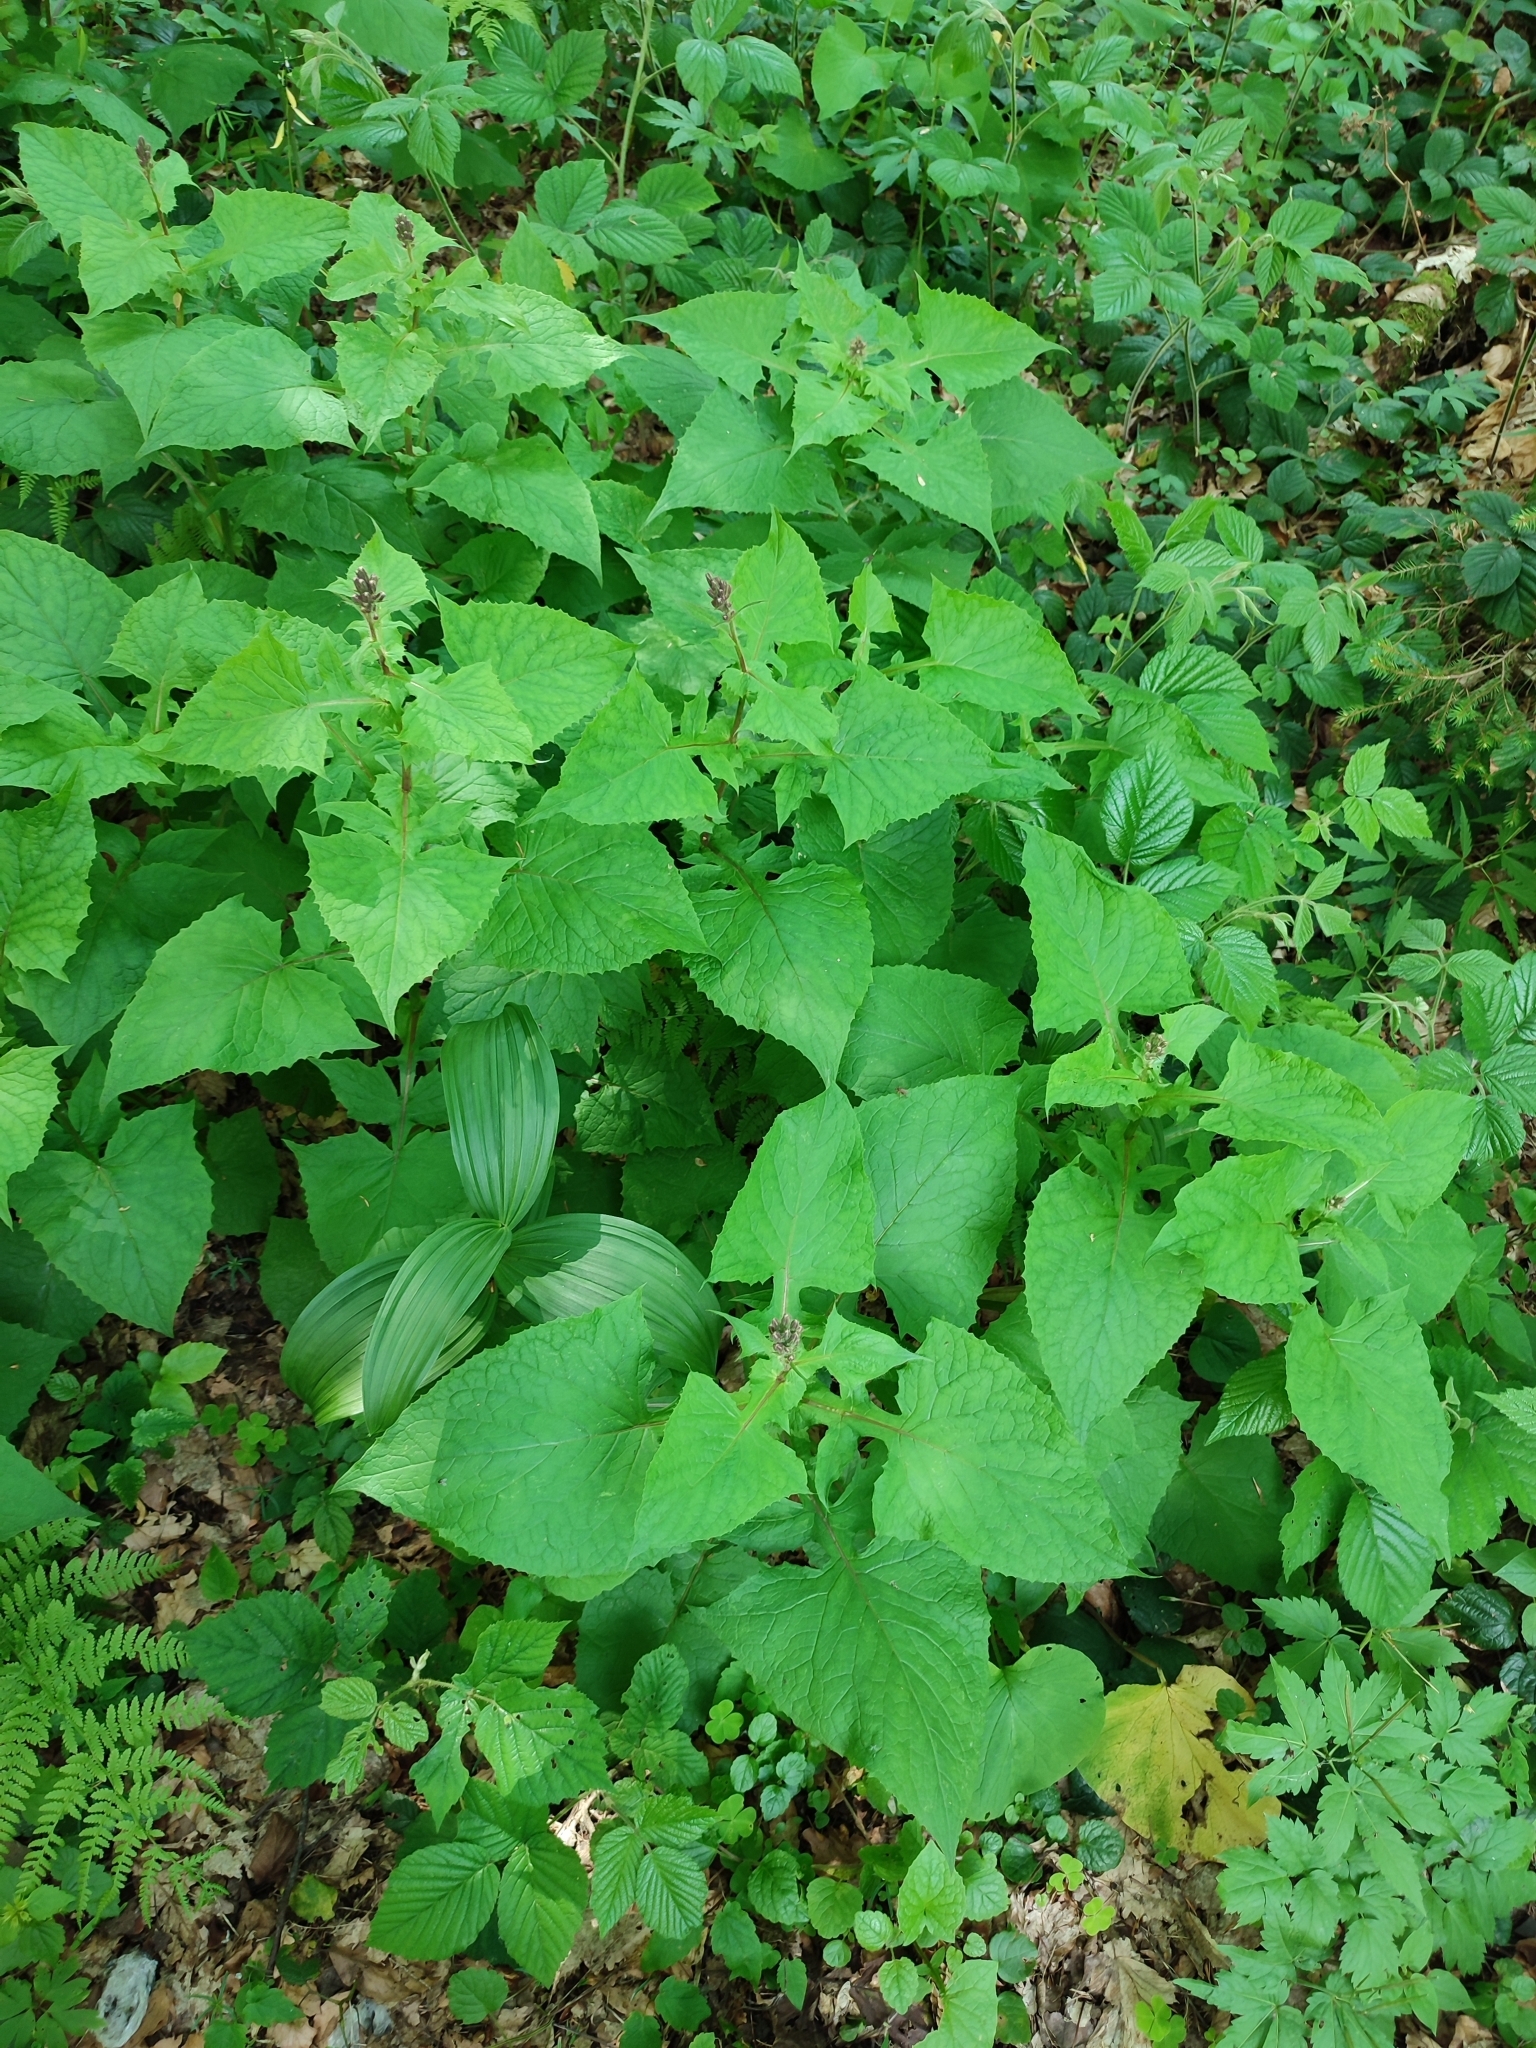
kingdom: Plantae
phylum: Tracheophyta
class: Magnoliopsida
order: Asterales
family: Asteraceae
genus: Cicerbita
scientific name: Cicerbita alpina
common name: Alpine blue-sow-thistle
